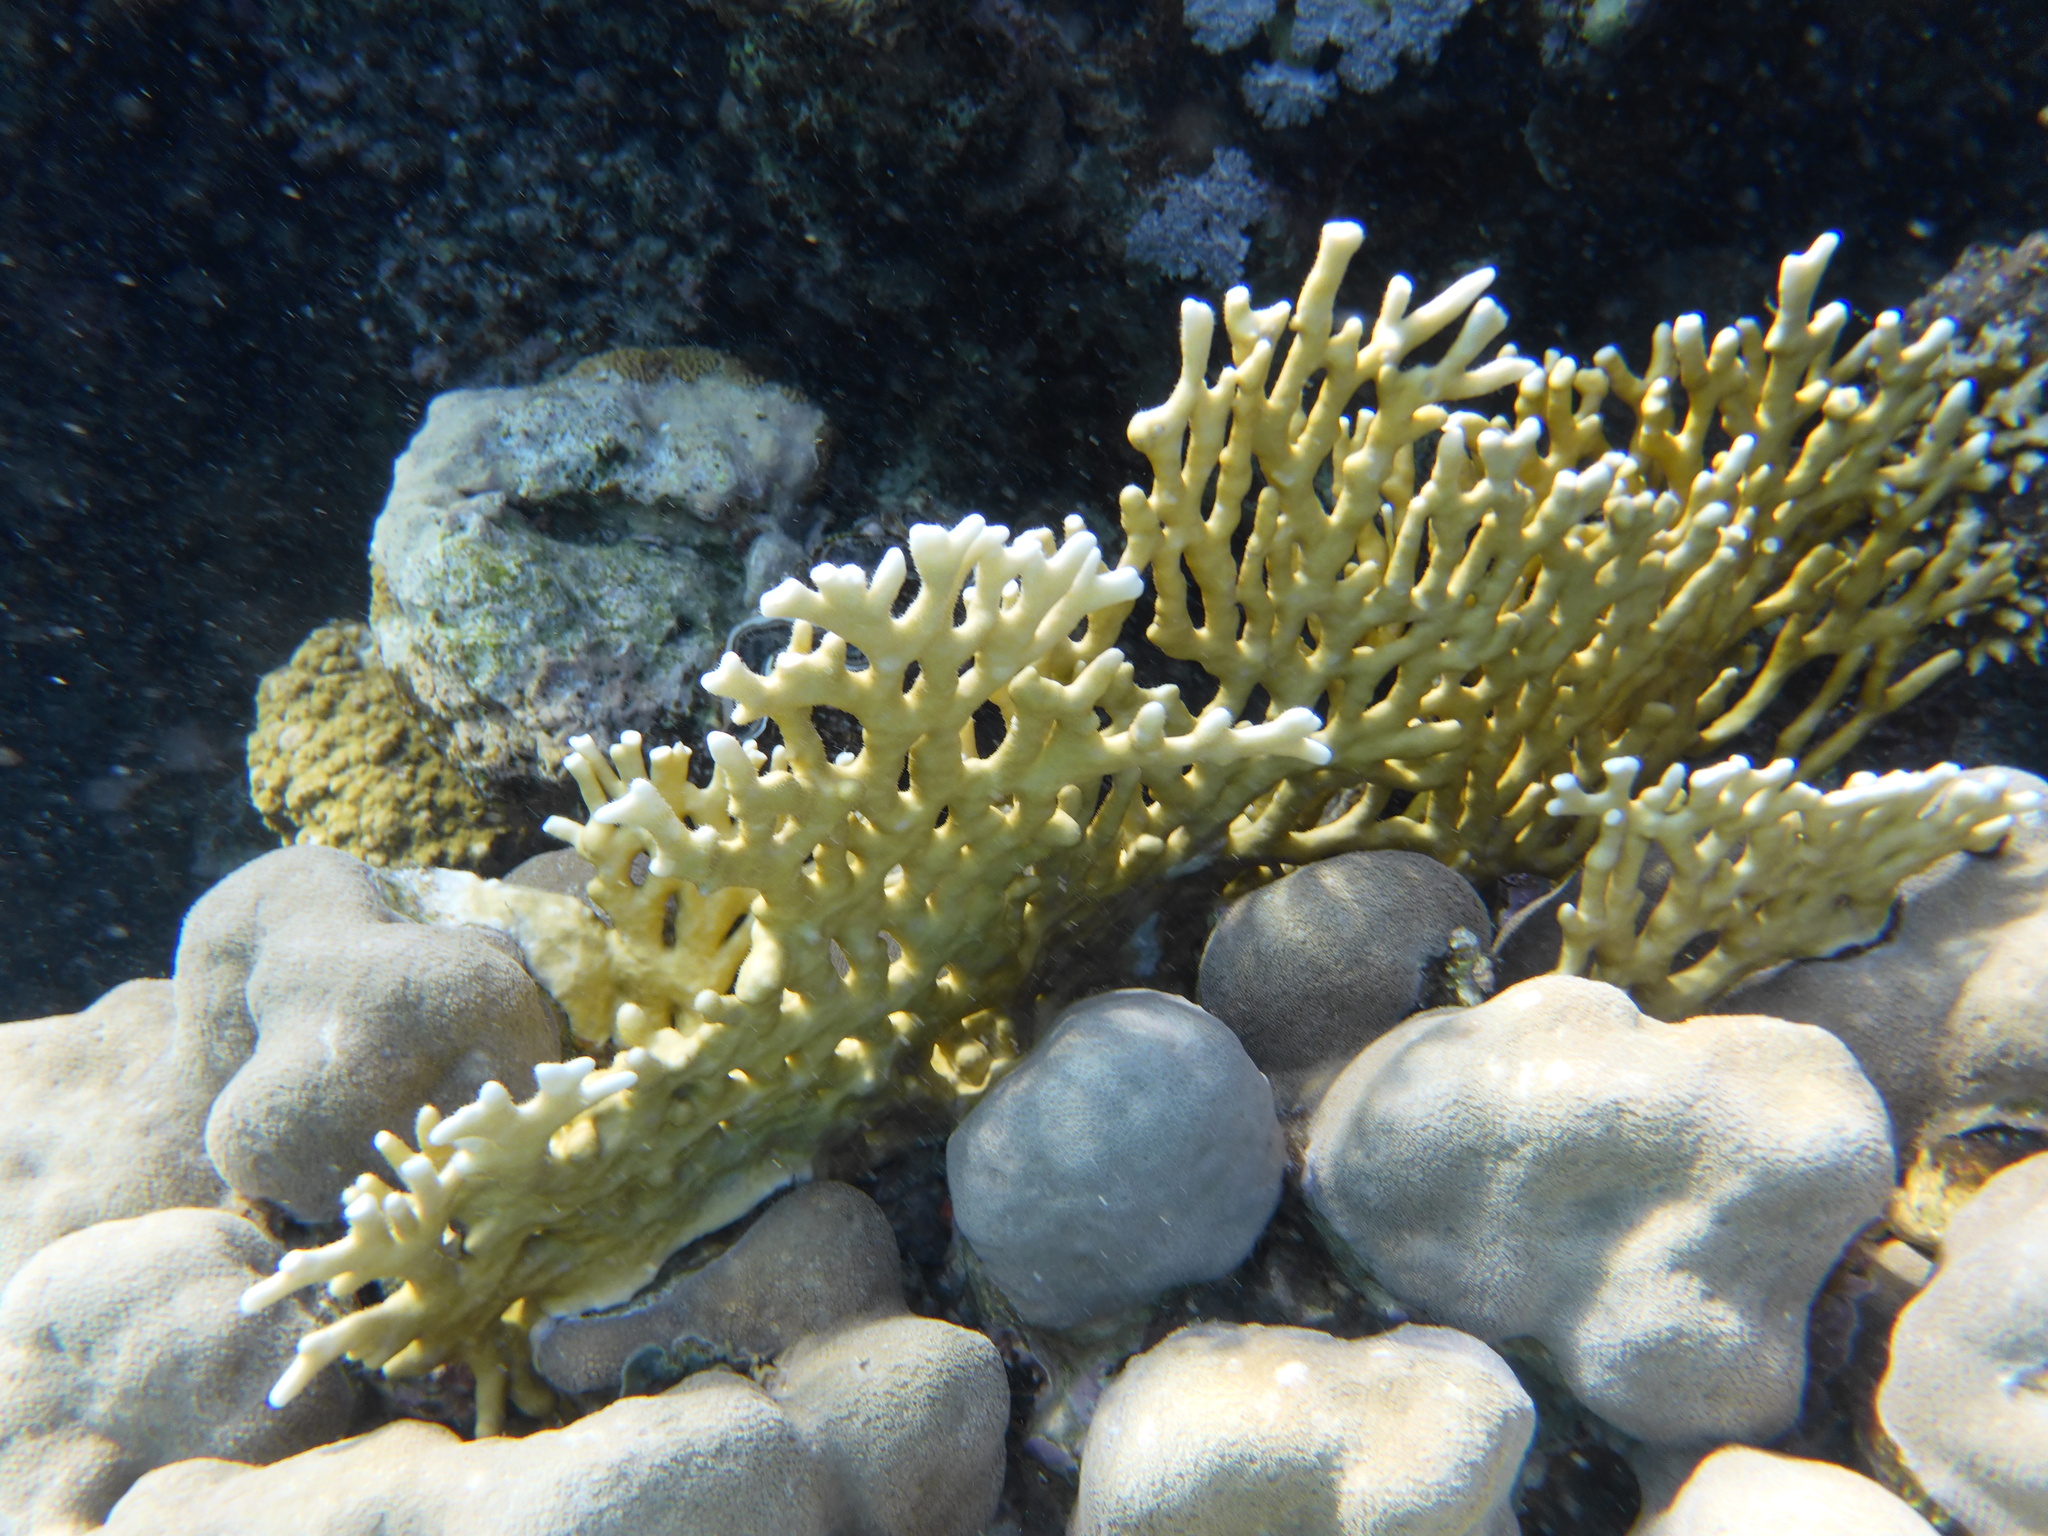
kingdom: Animalia
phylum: Cnidaria
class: Hydrozoa
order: Anthoathecata
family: Milleporidae
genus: Millepora
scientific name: Millepora dichotoma
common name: Ramified fire coral
